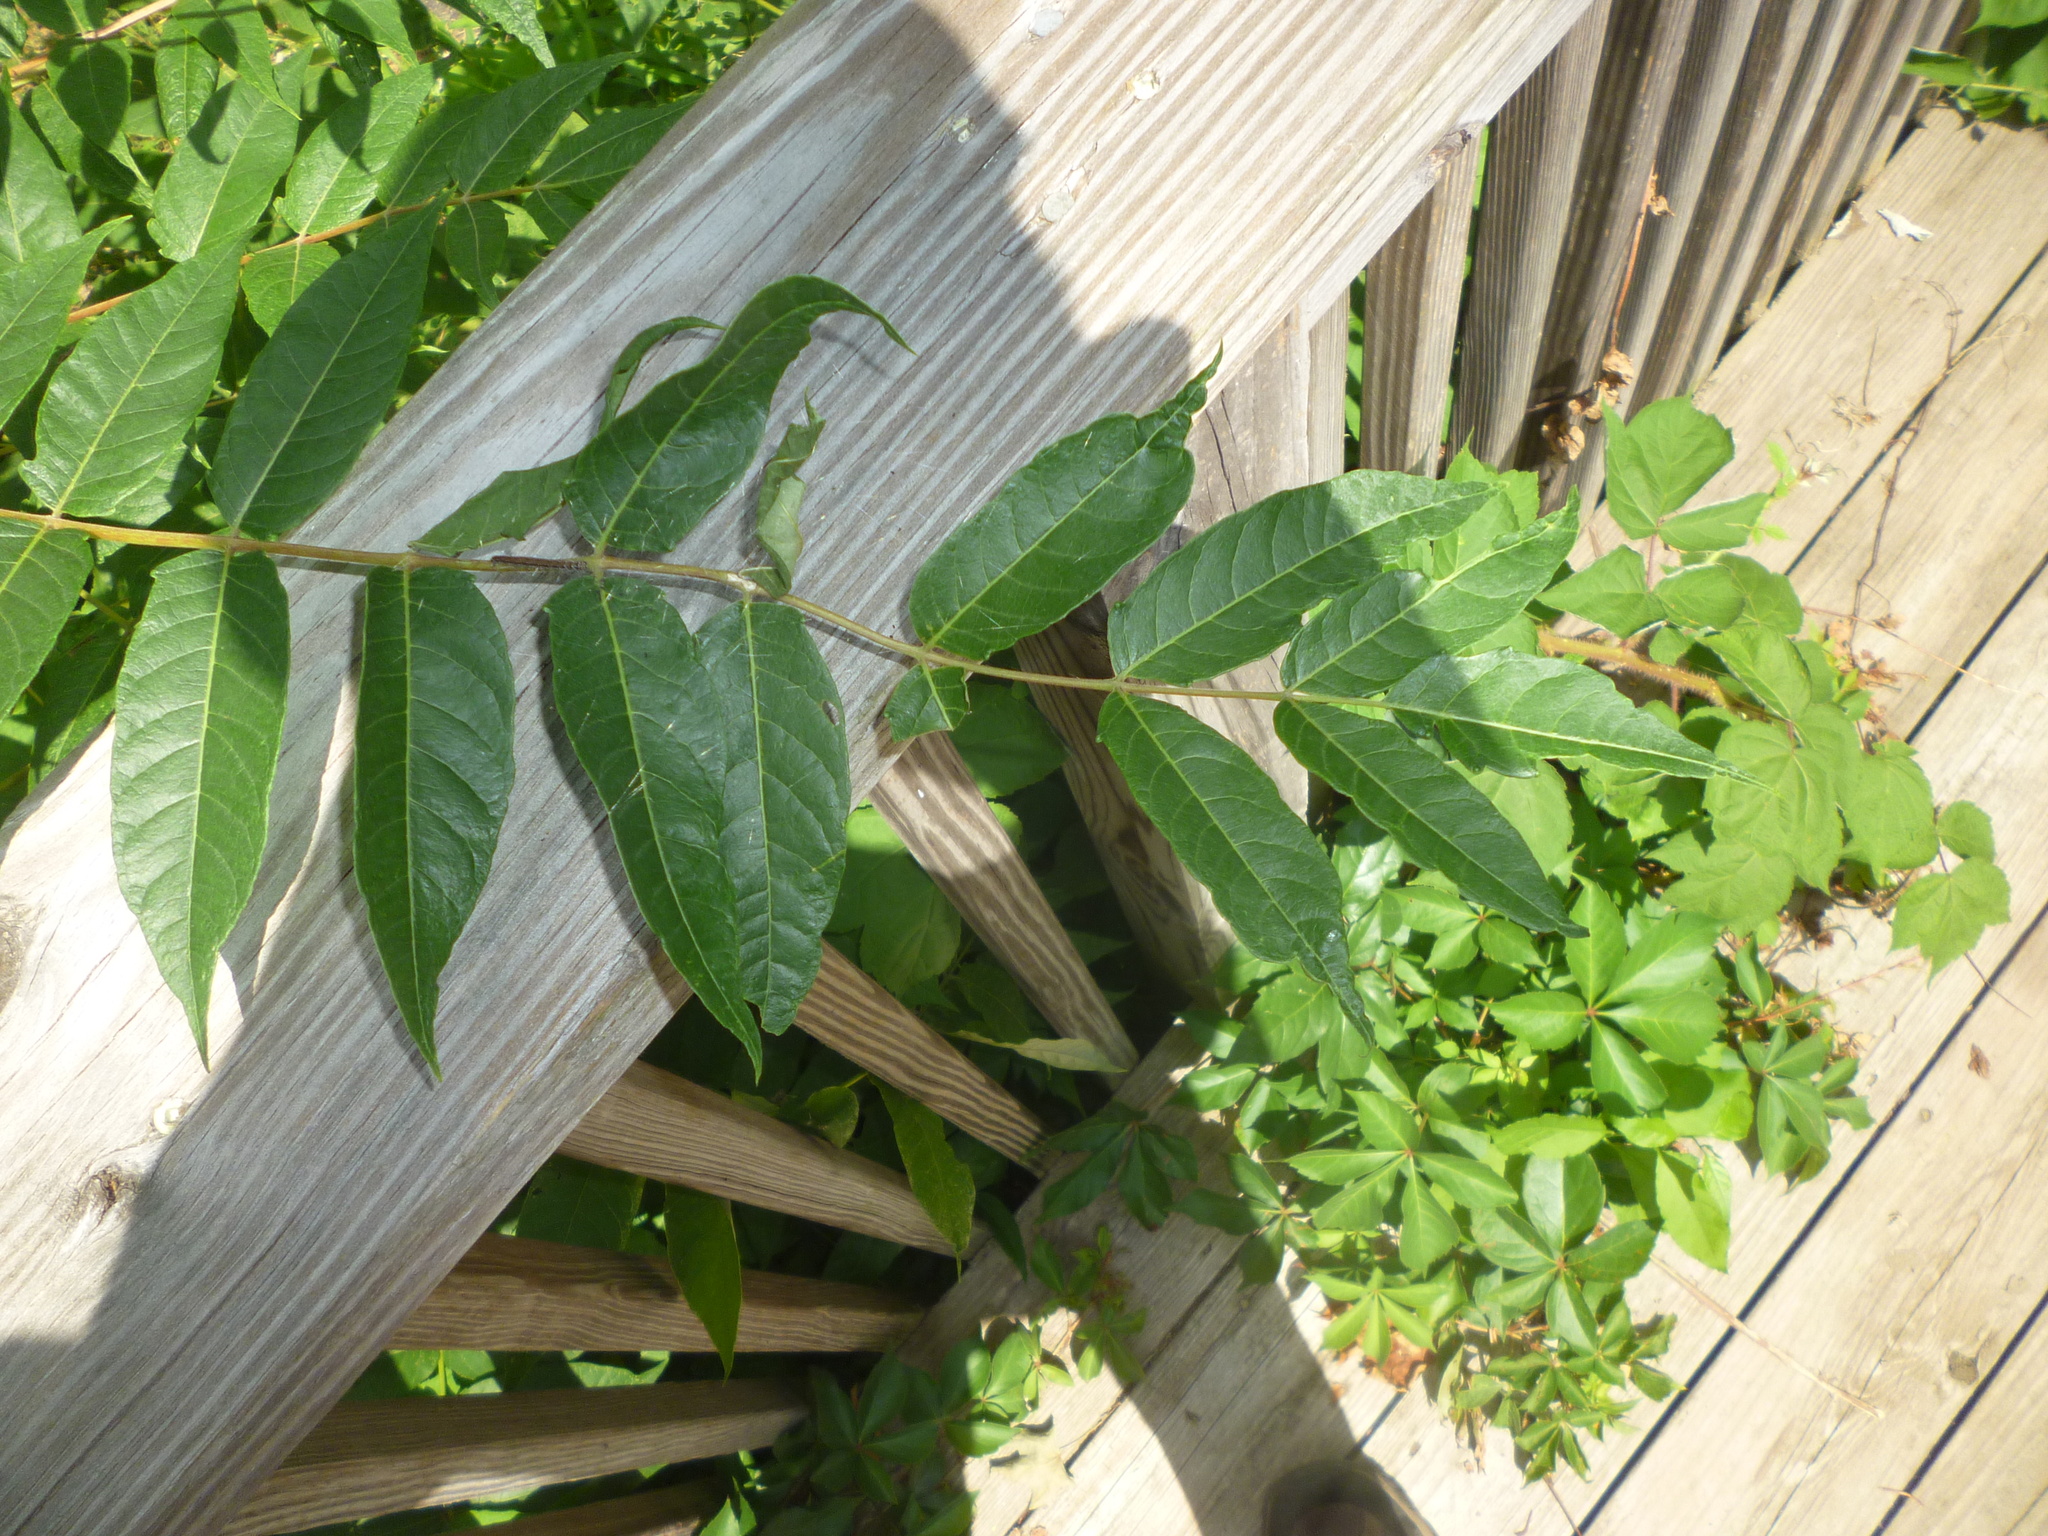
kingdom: Plantae
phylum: Tracheophyta
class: Magnoliopsida
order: Sapindales
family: Simaroubaceae
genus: Ailanthus
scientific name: Ailanthus altissima
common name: Tree-of-heaven
